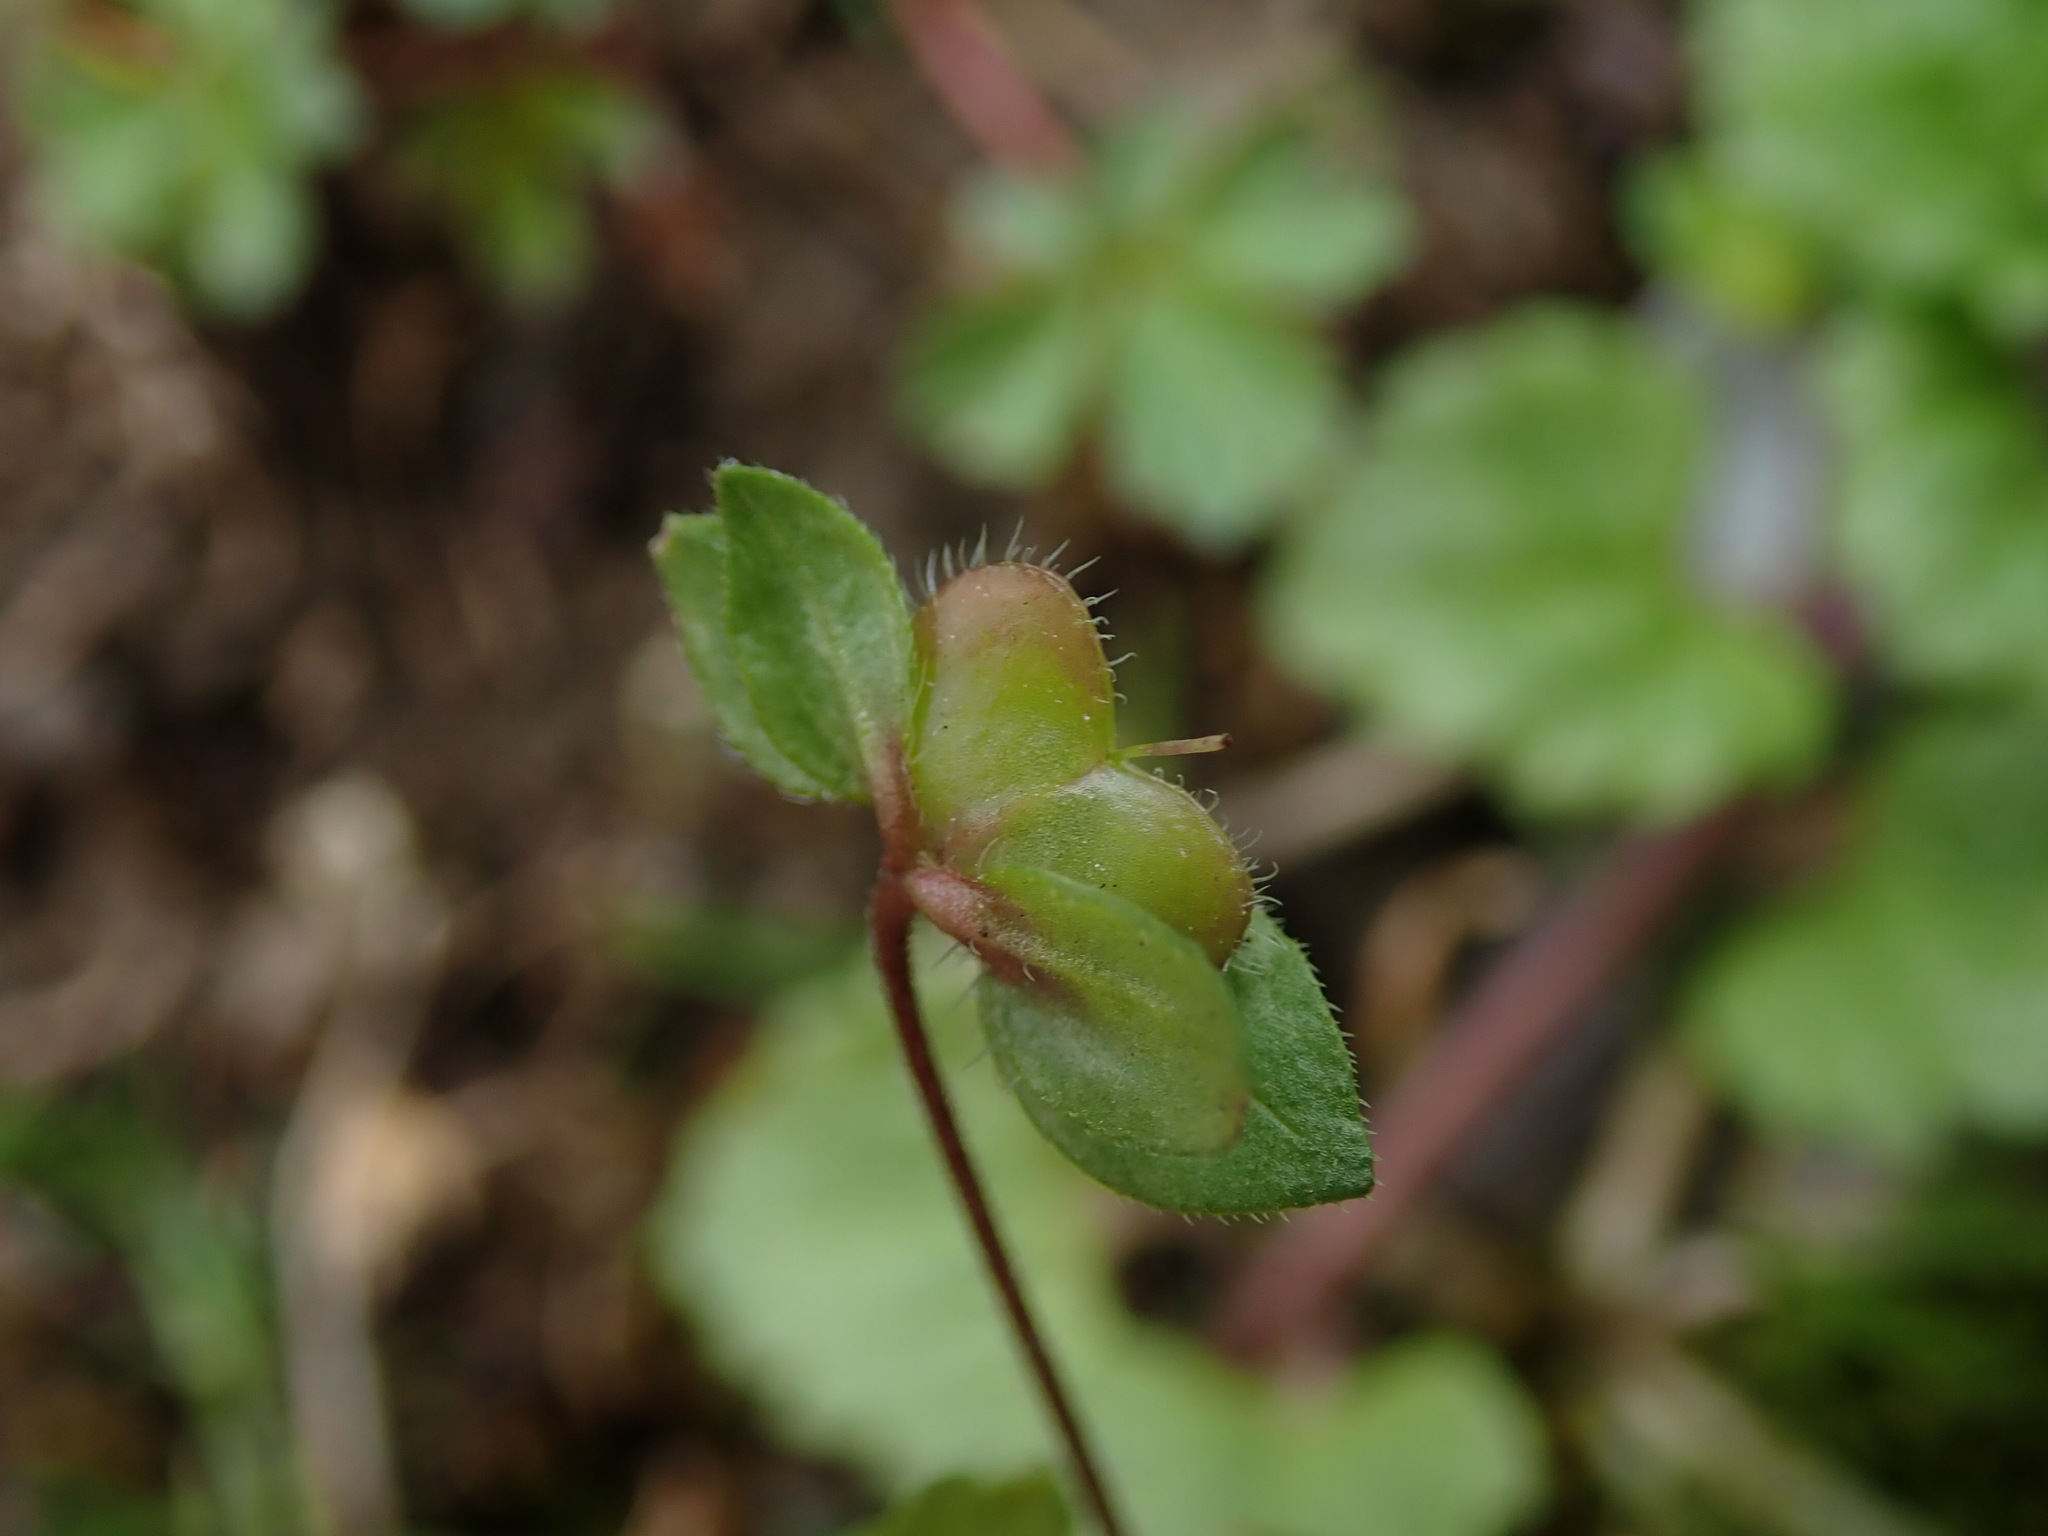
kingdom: Plantae
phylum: Tracheophyta
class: Magnoliopsida
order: Lamiales
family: Plantaginaceae
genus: Veronica
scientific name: Veronica persica
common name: Common field-speedwell
